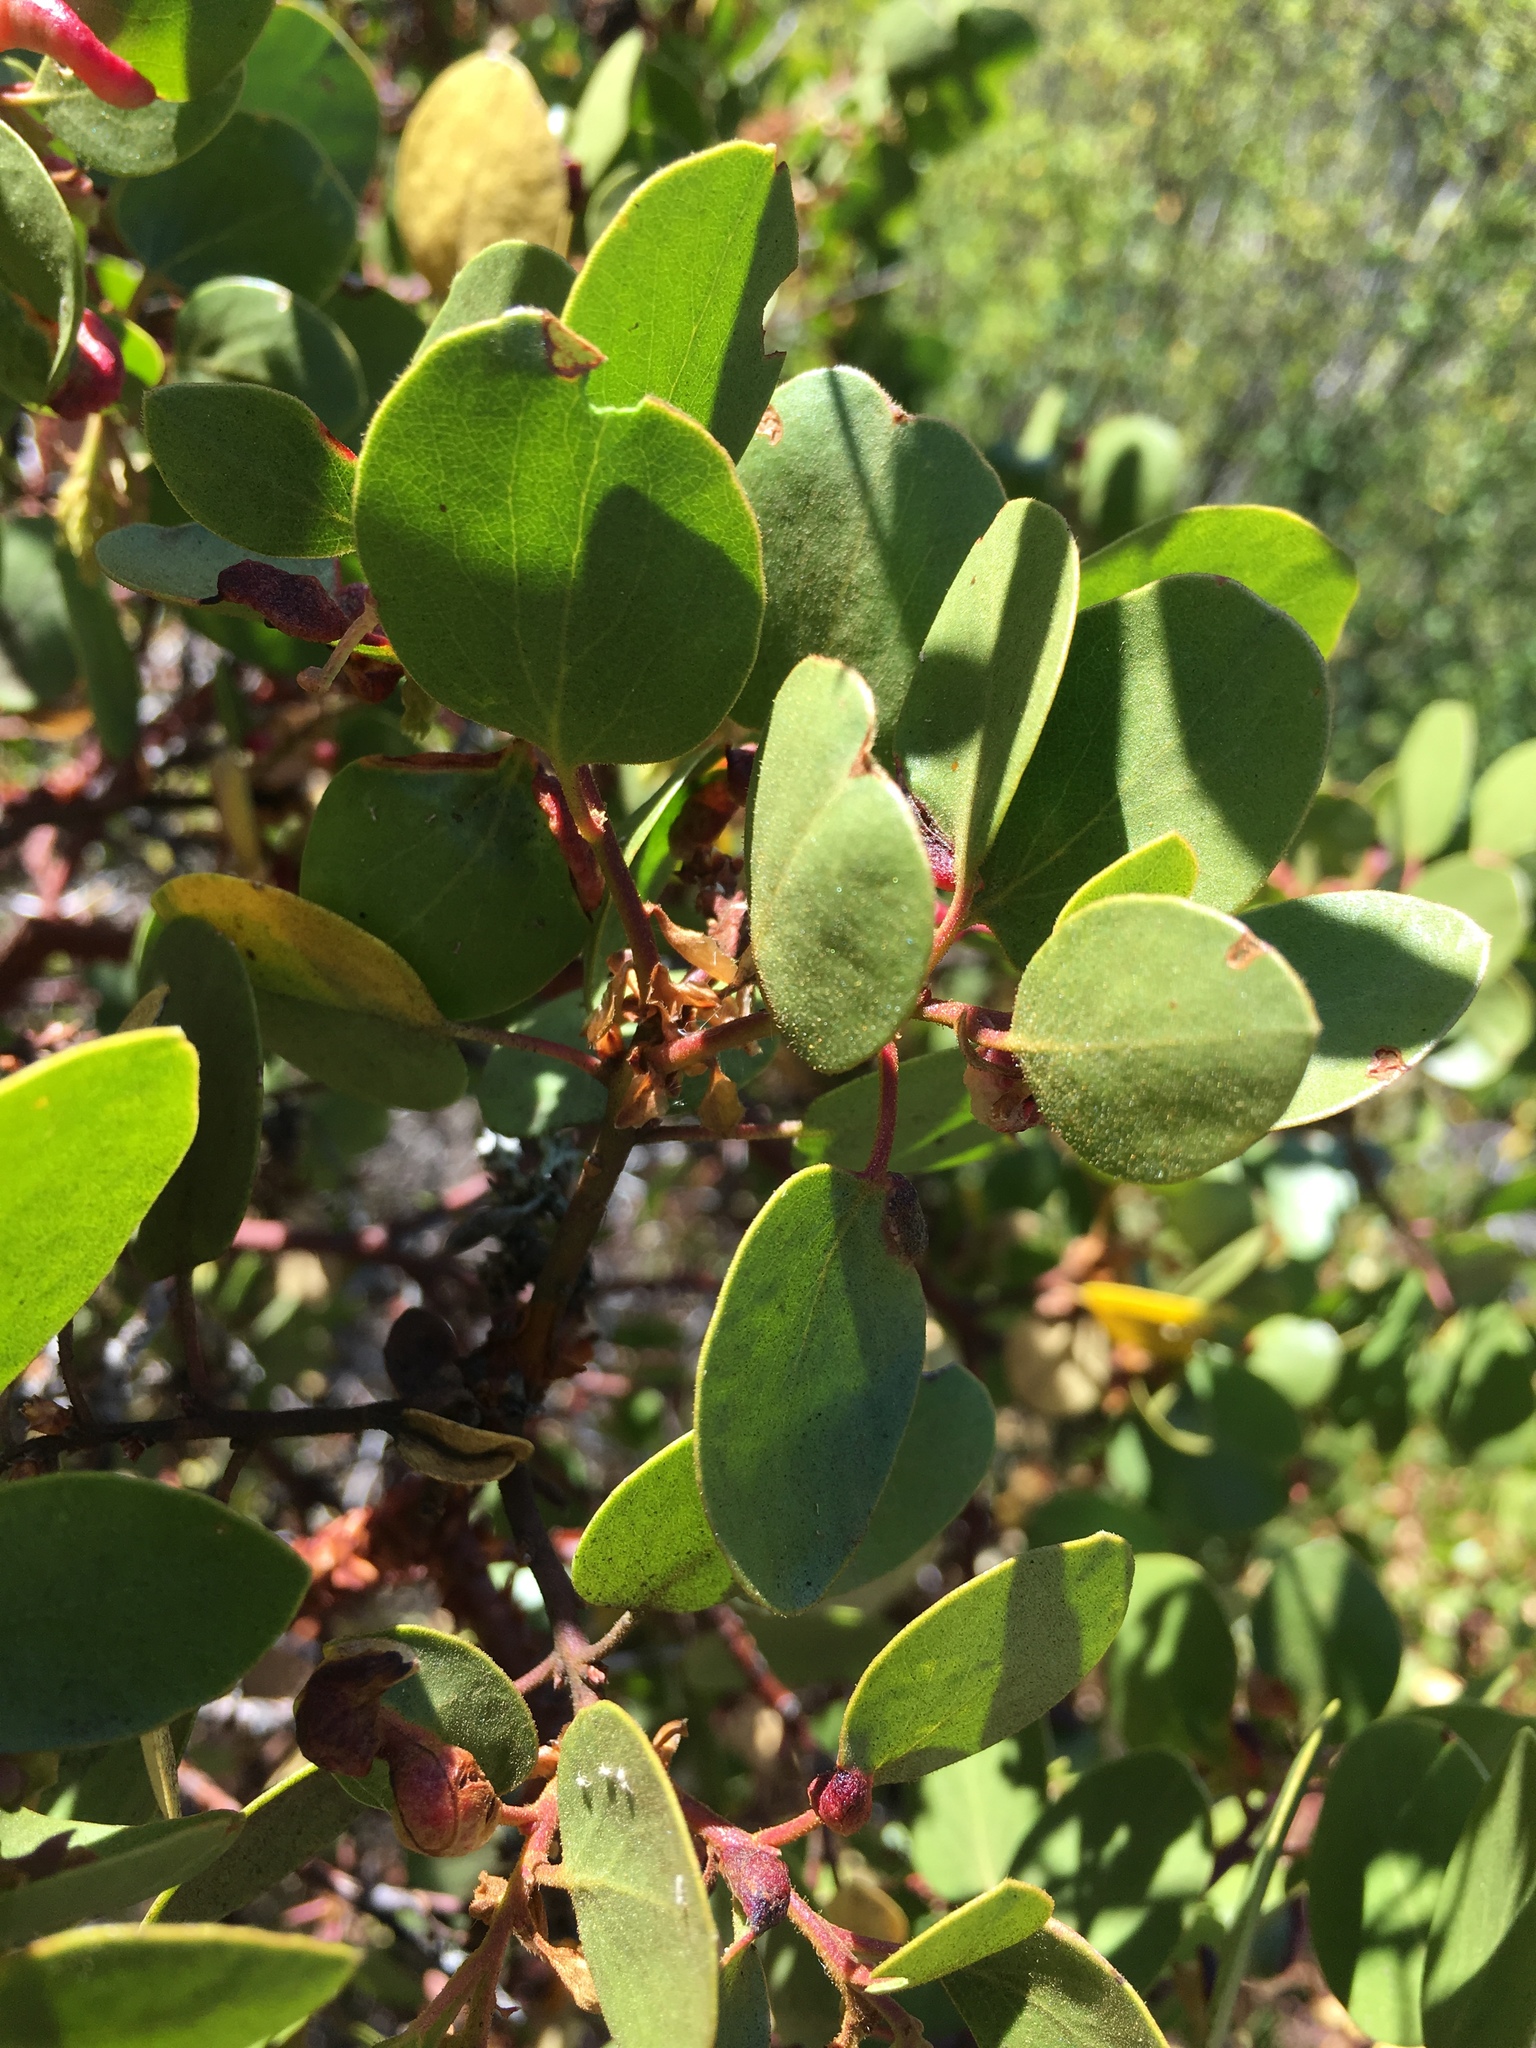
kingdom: Plantae
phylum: Tracheophyta
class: Magnoliopsida
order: Ericales
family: Ericaceae
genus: Arctostaphylos
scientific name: Arctostaphylos patula
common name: Green-leaf manzanita
